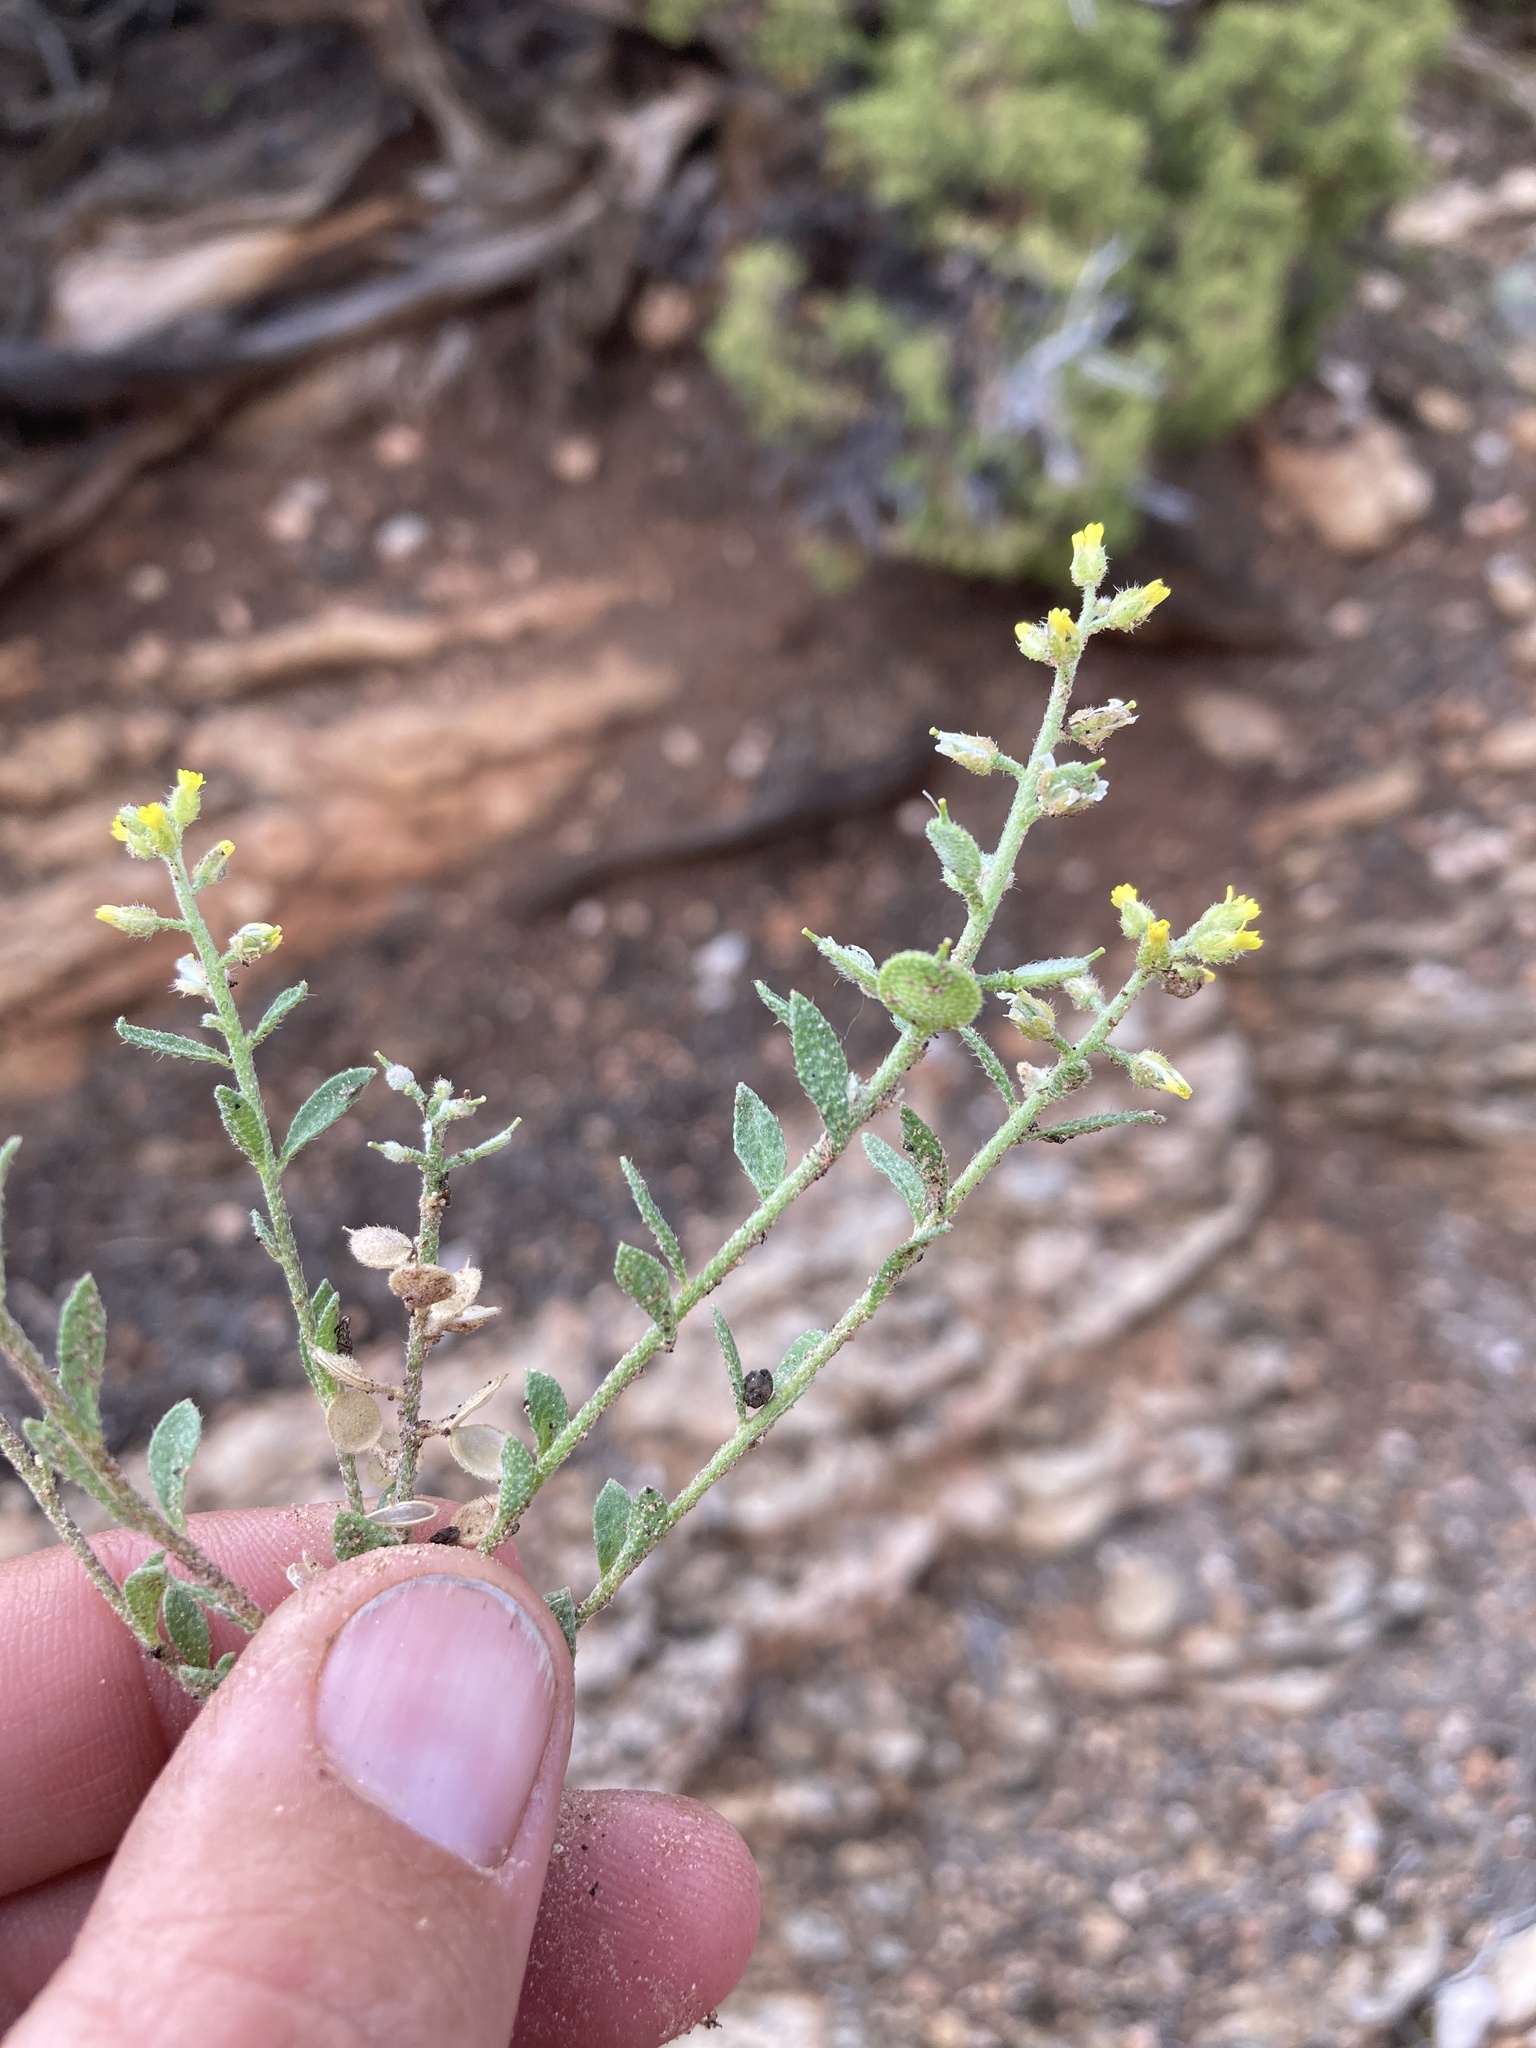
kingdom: Plantae
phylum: Tracheophyta
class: Magnoliopsida
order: Brassicales
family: Brassicaceae
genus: Alyssum
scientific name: Alyssum simplex
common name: Alyssum
